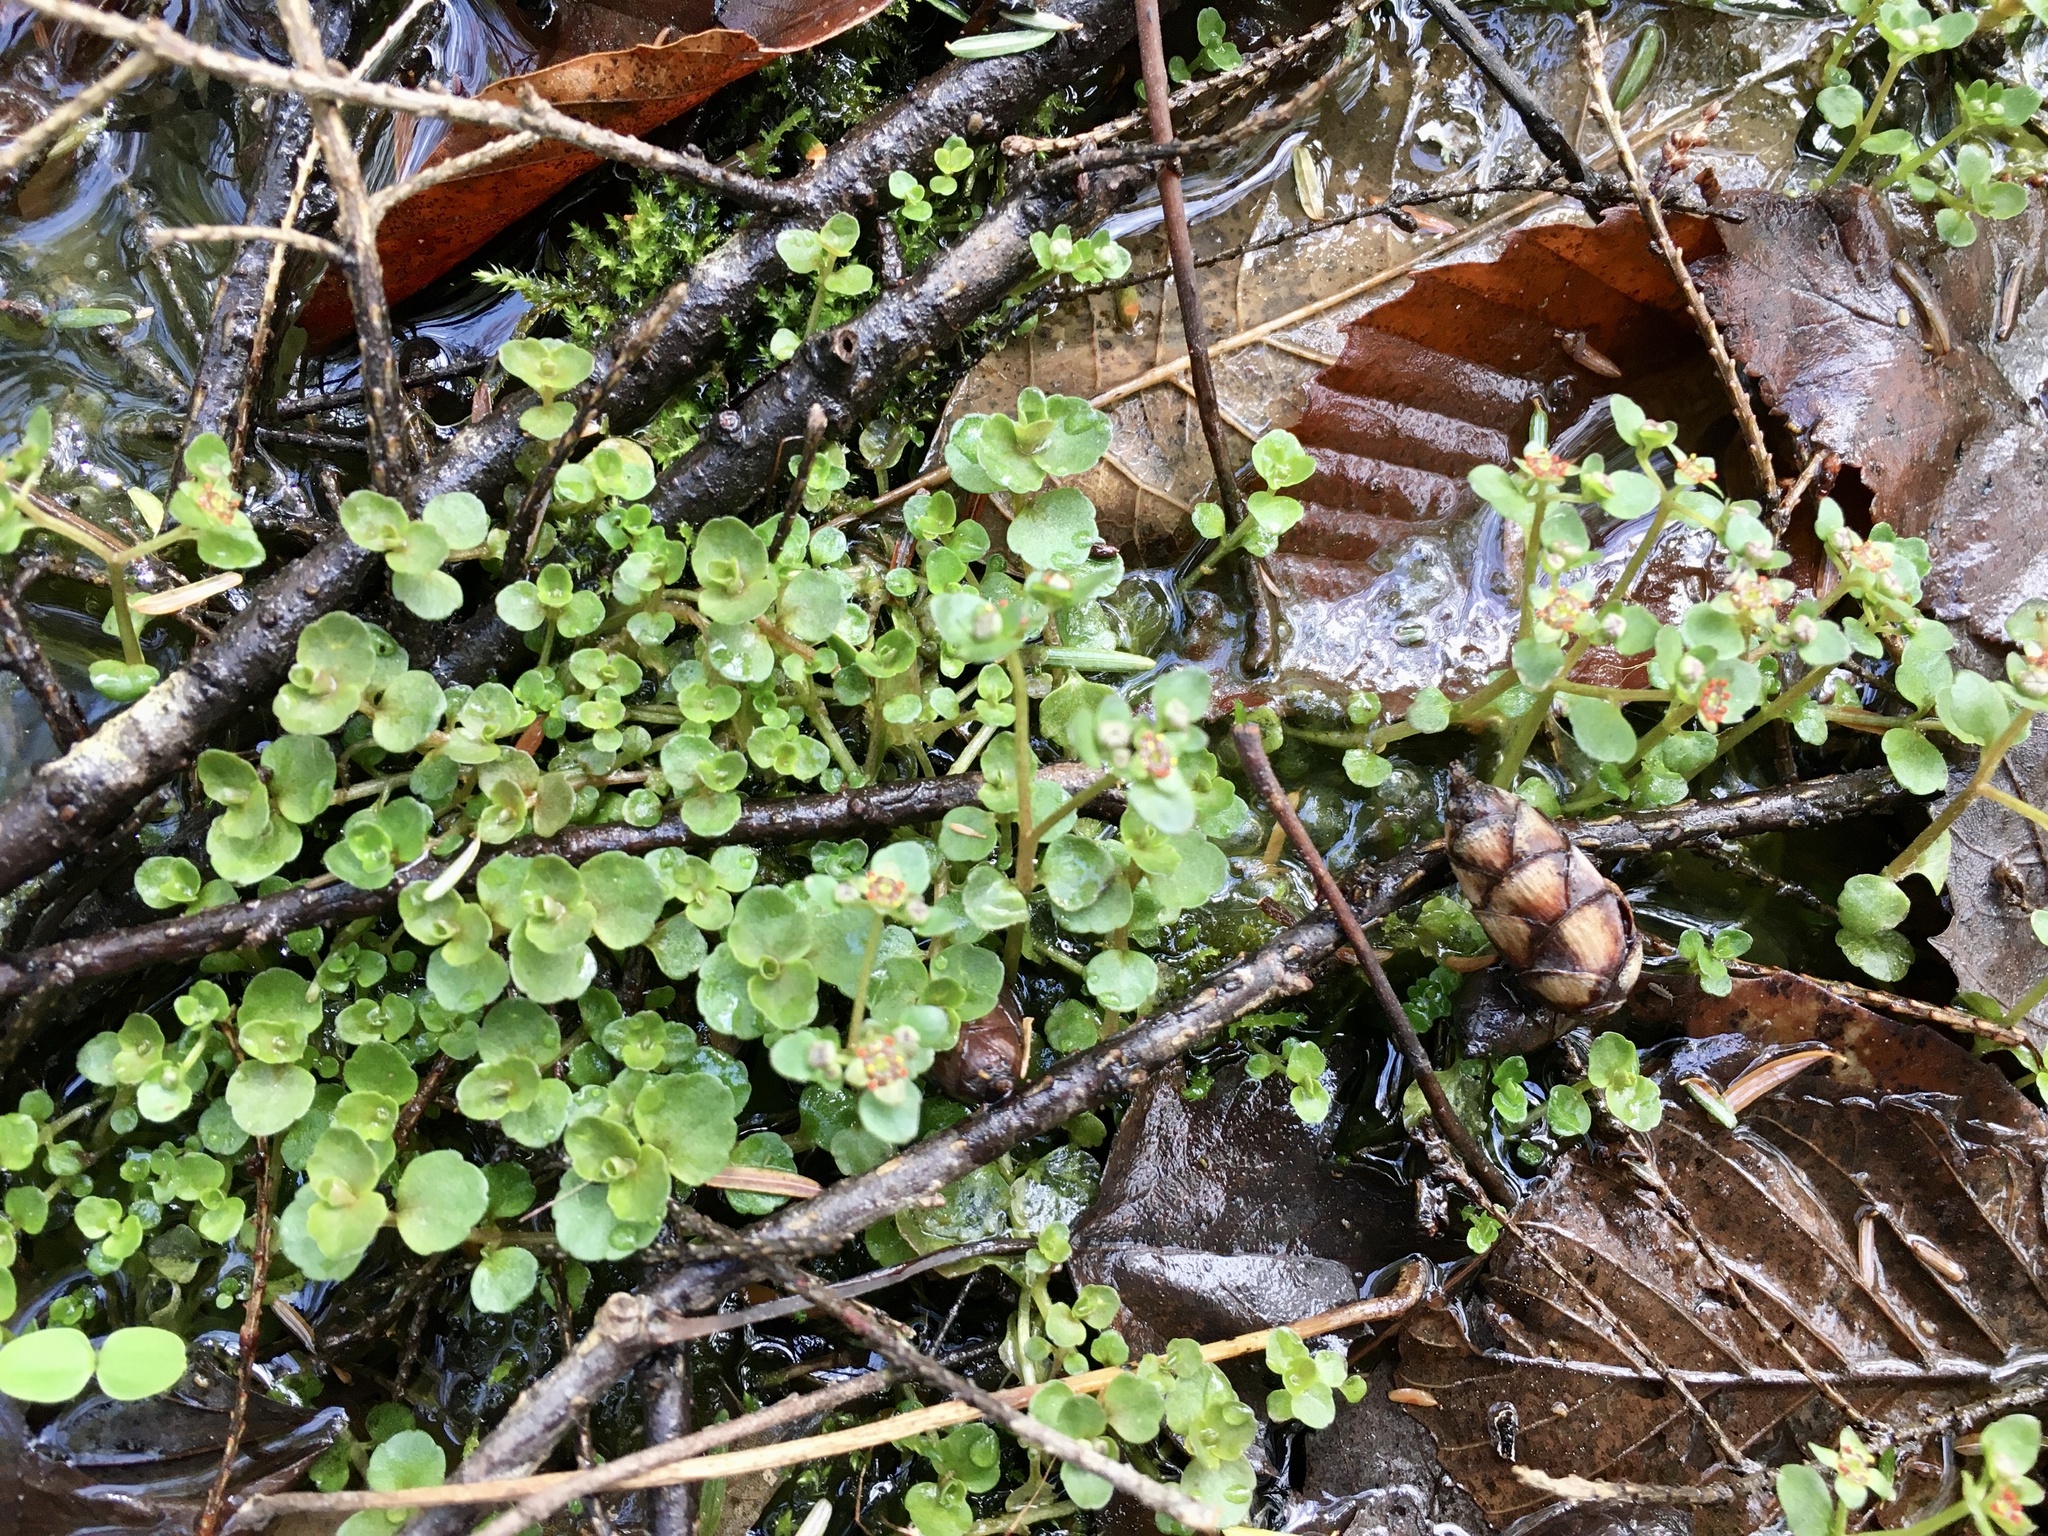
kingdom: Plantae
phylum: Tracheophyta
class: Magnoliopsida
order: Saxifragales
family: Saxifragaceae
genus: Chrysosplenium
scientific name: Chrysosplenium americanum
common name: American golden-saxifrage
